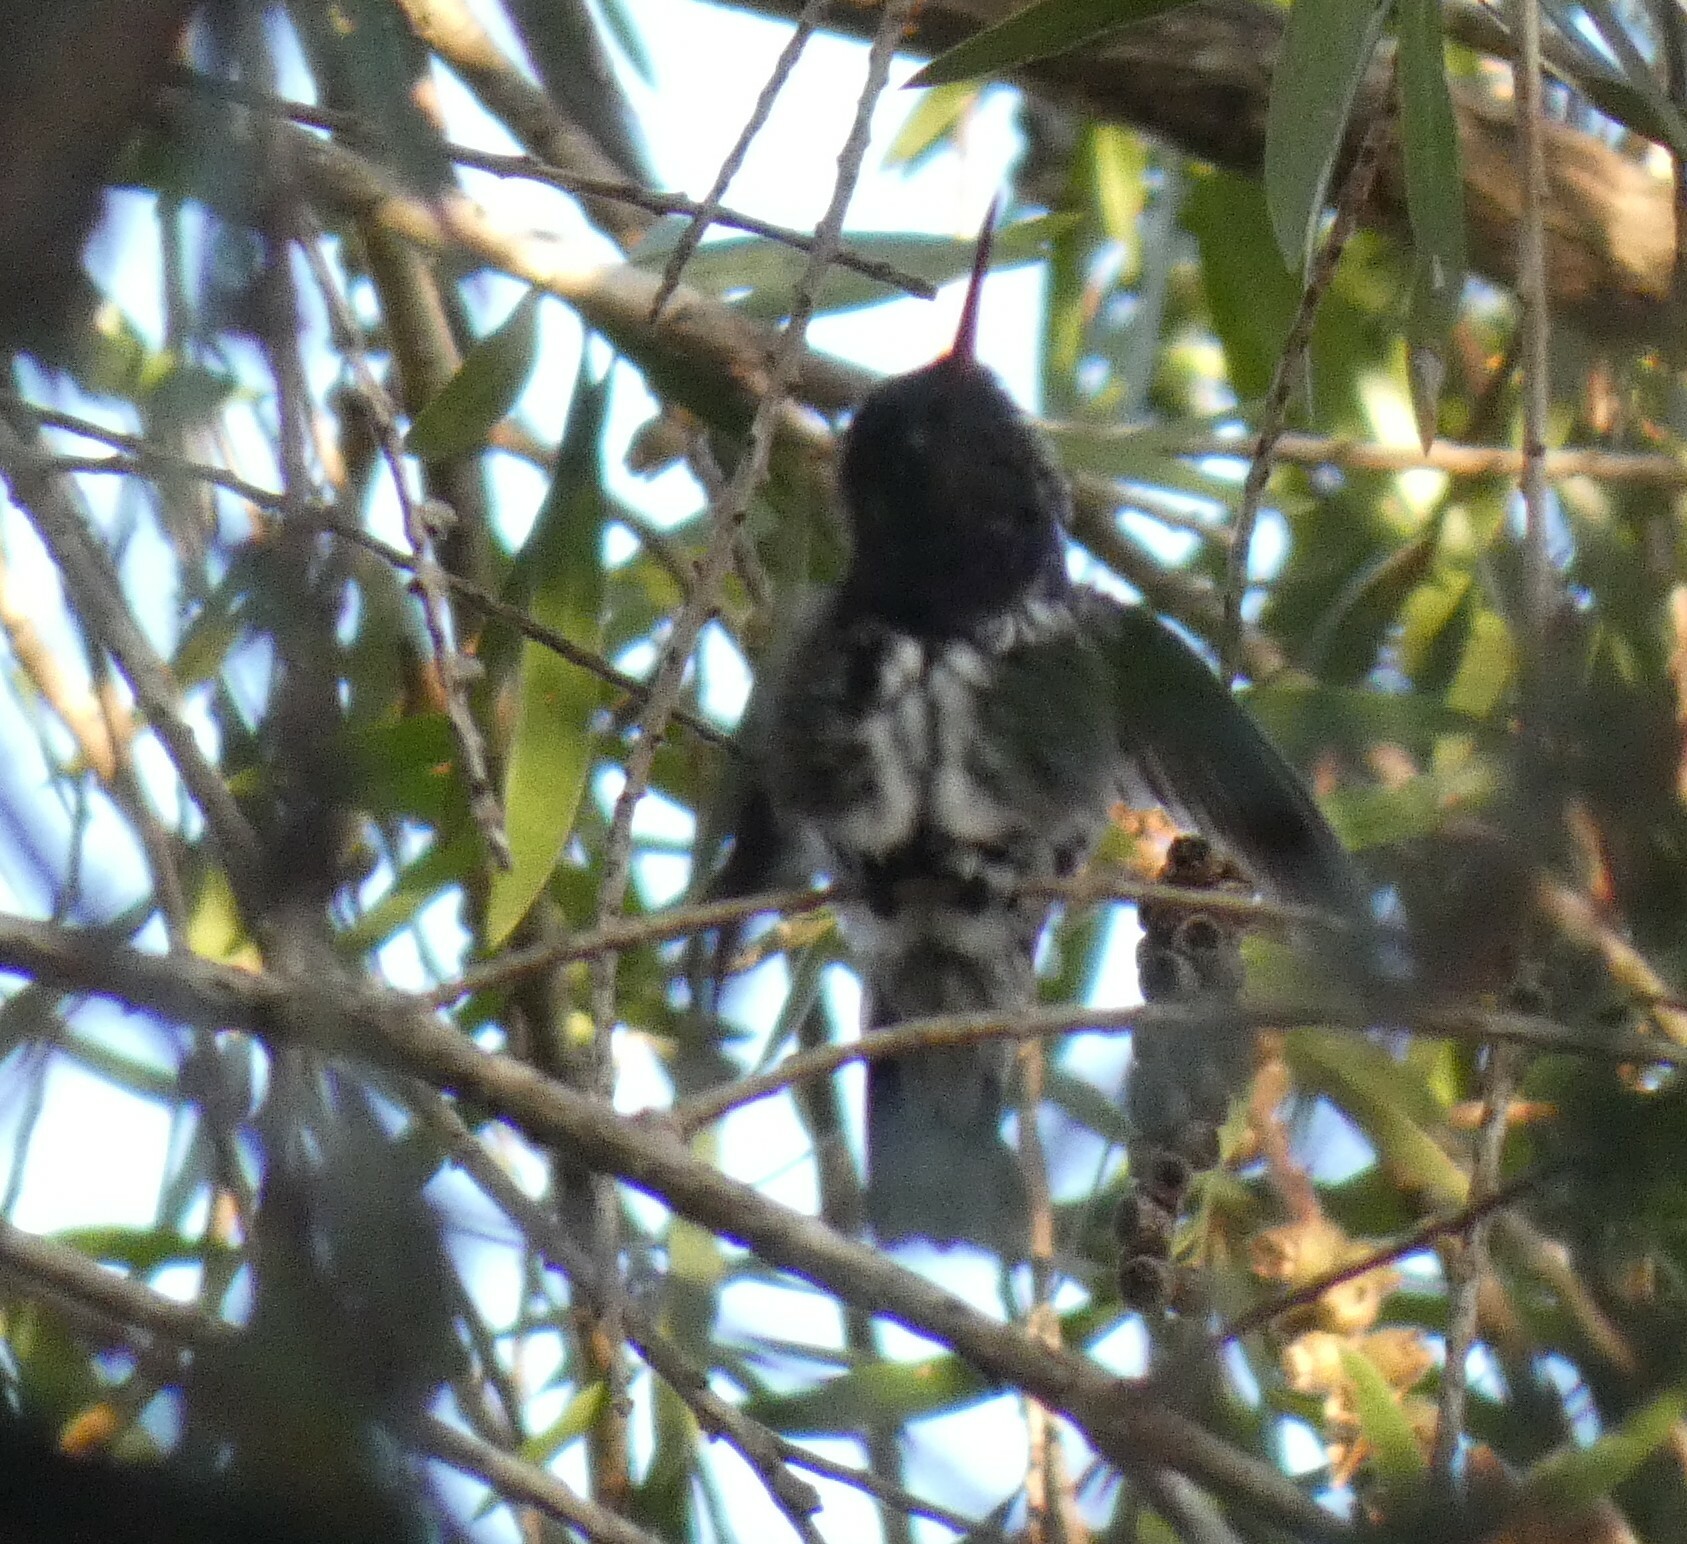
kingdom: Animalia
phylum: Chordata
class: Aves
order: Apodiformes
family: Trochilidae
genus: Chionomesa
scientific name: Chionomesa lactea
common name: Sapphire-spangled emerald
